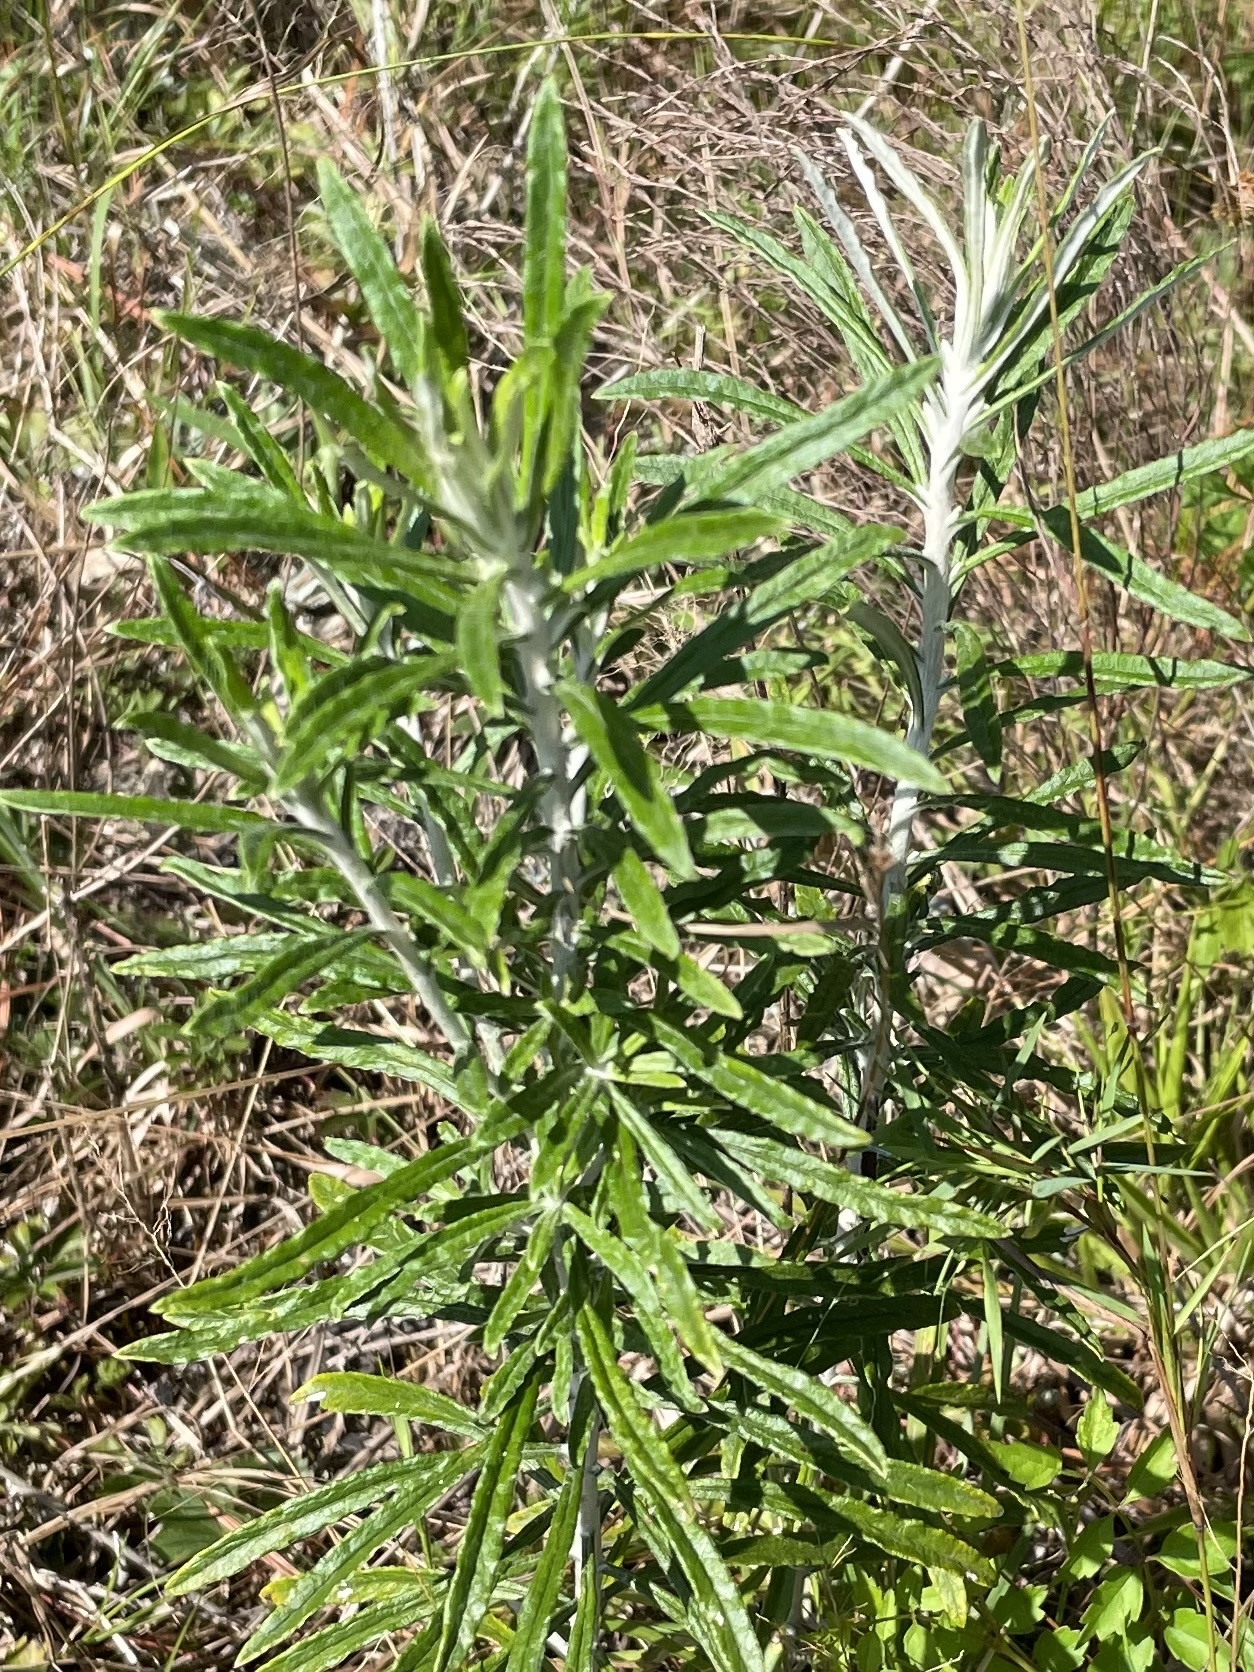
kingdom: Plantae
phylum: Tracheophyta
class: Magnoliopsida
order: Asterales
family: Asteraceae
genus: Pseudognaphalium
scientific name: Pseudognaphalium obtusifolium
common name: Eastern rabbit-tobacco
